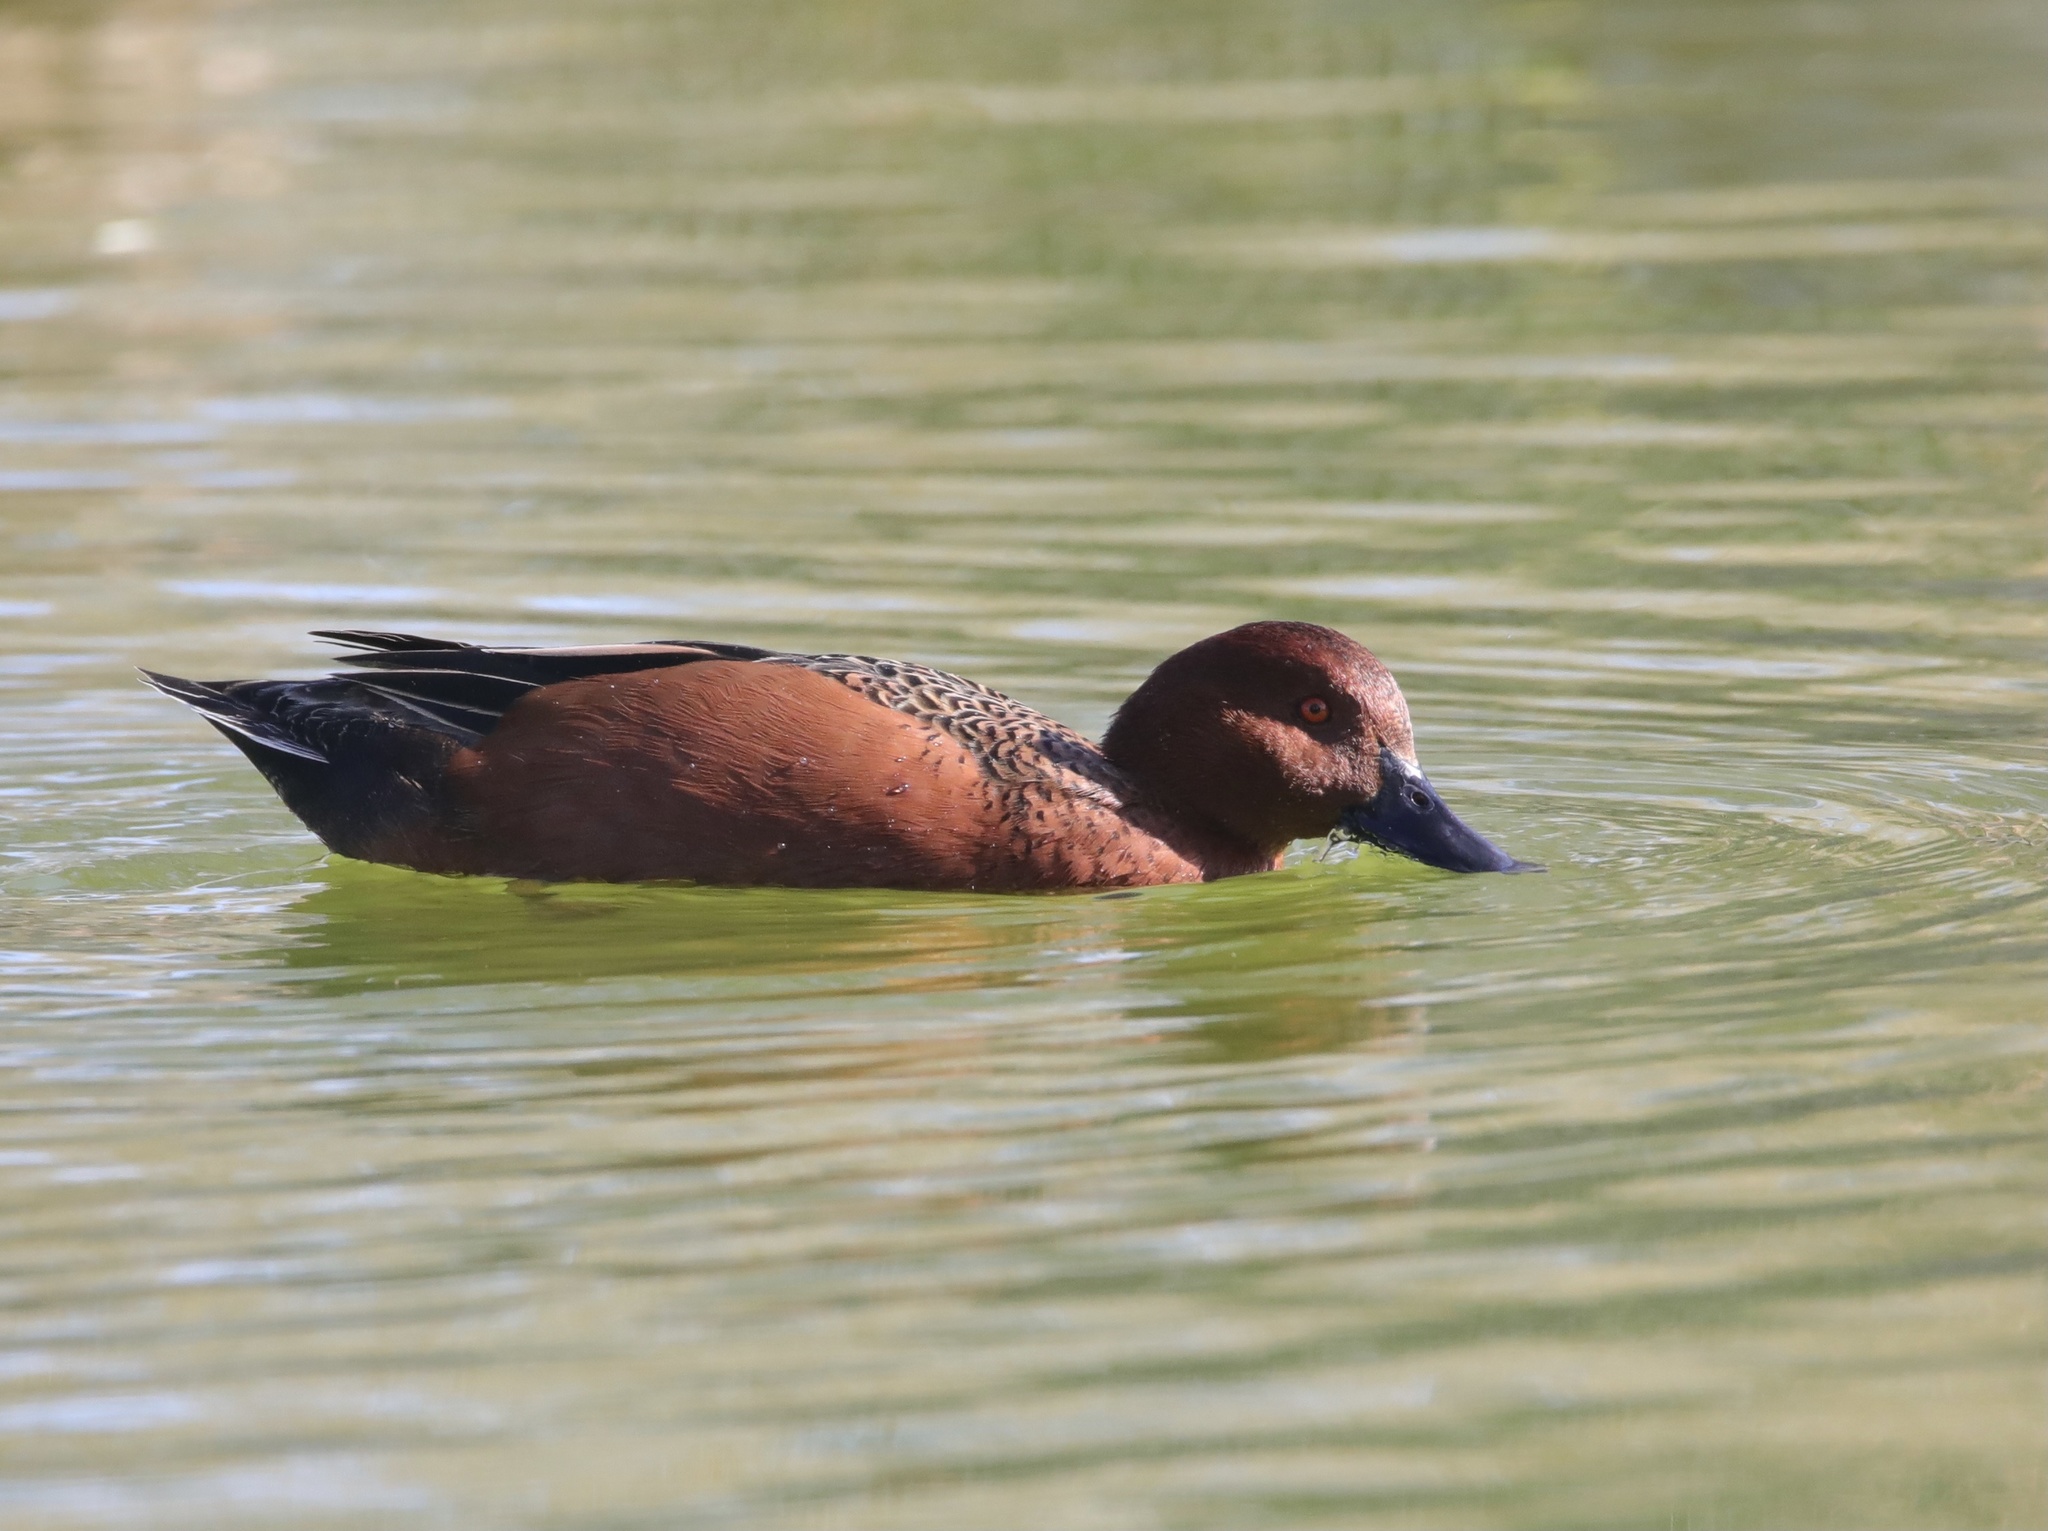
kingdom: Animalia
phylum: Chordata
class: Aves
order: Anseriformes
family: Anatidae
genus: Spatula
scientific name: Spatula cyanoptera
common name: Cinnamon teal
